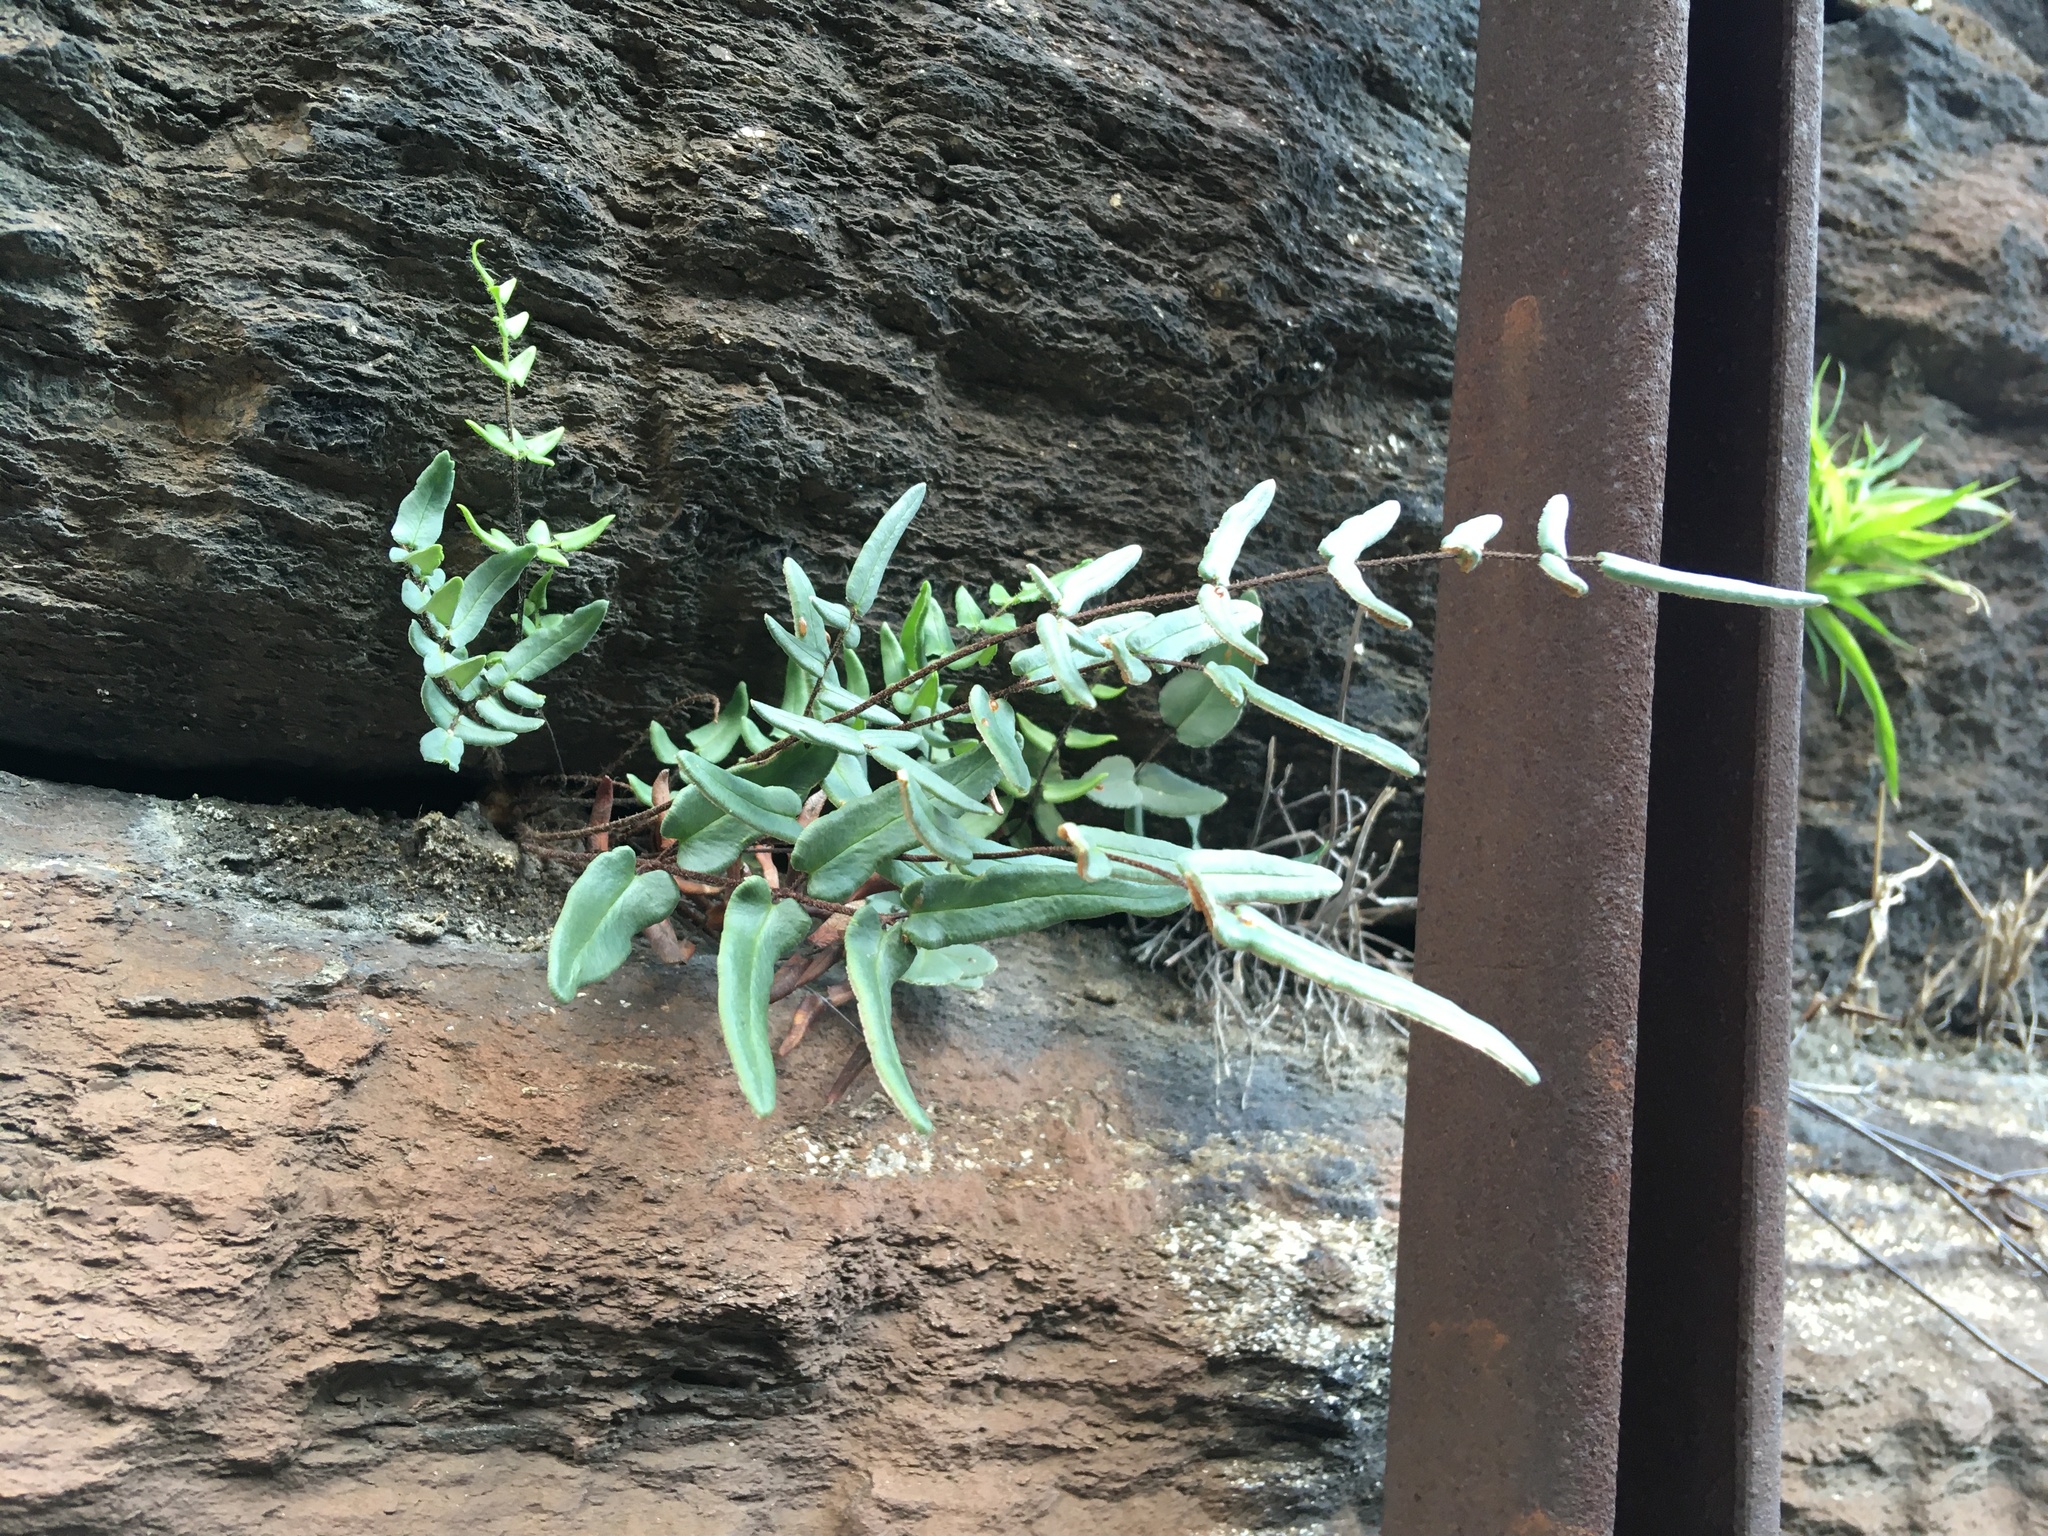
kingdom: Plantae
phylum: Tracheophyta
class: Polypodiopsida
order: Polypodiales
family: Pteridaceae
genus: Pellaea
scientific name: Pellaea atropurpurea
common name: Hairy cliffbrake
